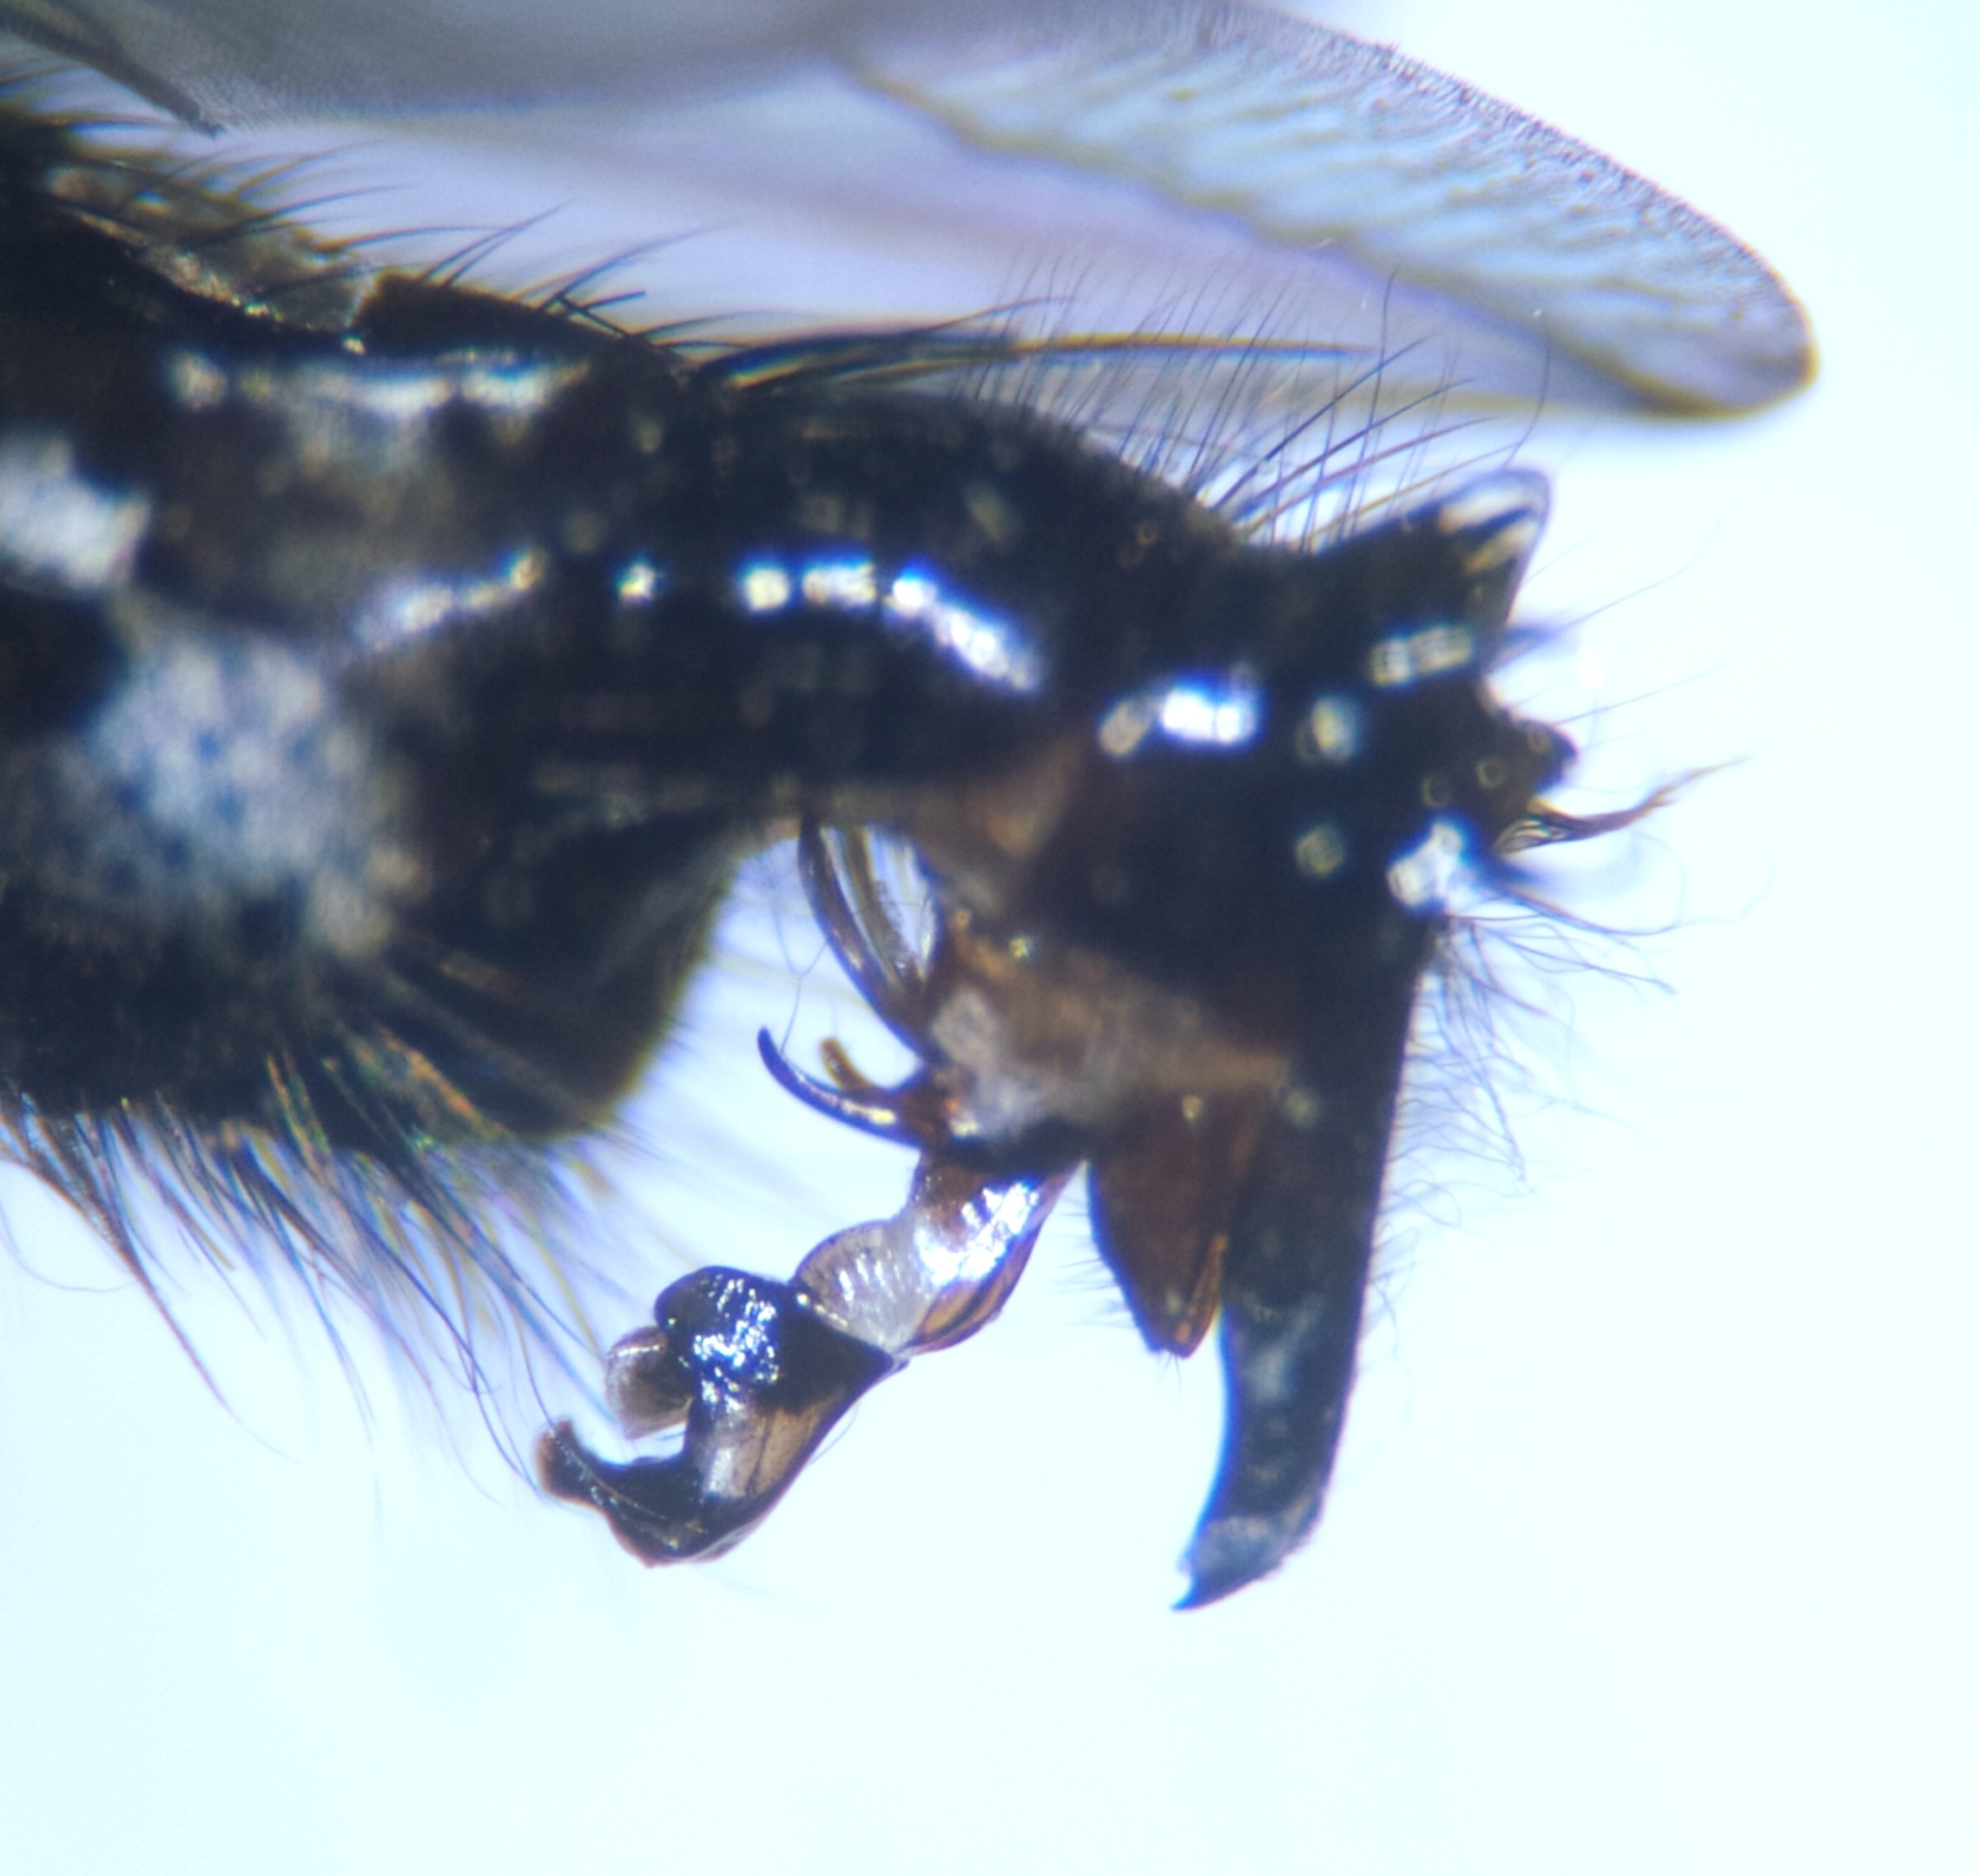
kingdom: Animalia
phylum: Arthropoda
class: Insecta
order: Diptera
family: Sarcophagidae
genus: Sarcophaga
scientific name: Sarcophaga lehmanni
